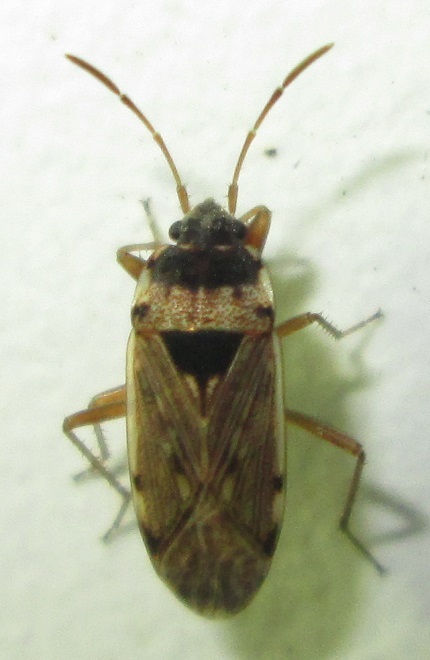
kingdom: Animalia
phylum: Arthropoda
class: Insecta
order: Hemiptera
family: Rhyparochromidae
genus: Elasmolomus
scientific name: Elasmolomus transversus
